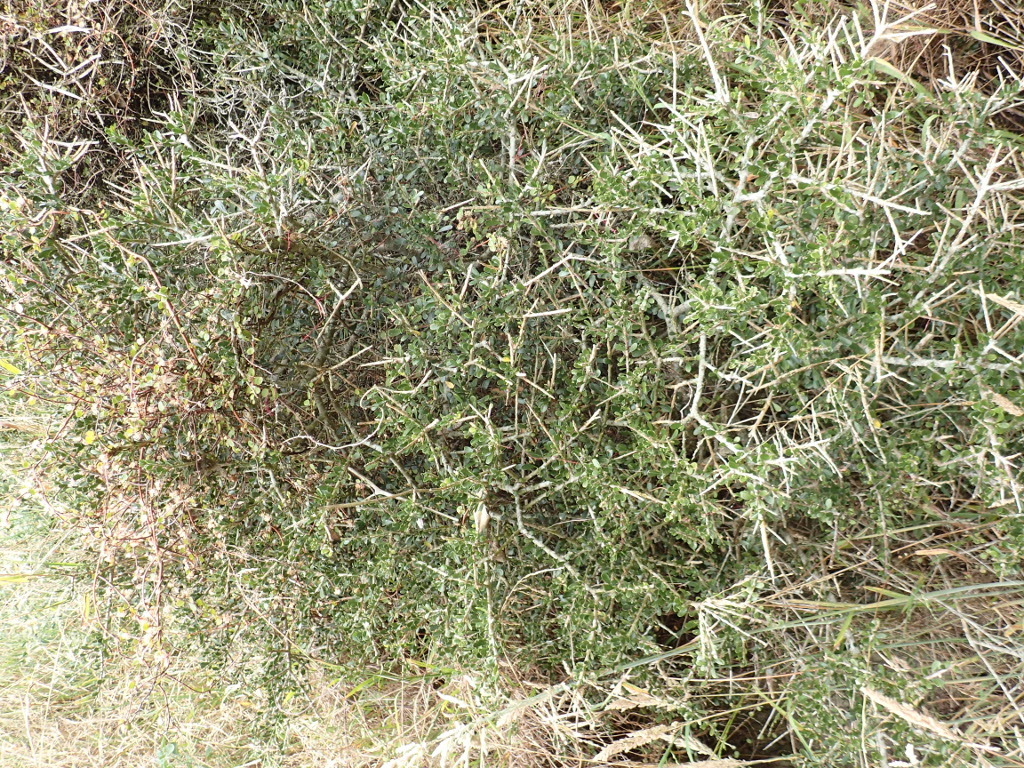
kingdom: Plantae
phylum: Tracheophyta
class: Magnoliopsida
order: Malpighiales
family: Violaceae
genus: Melicytus
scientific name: Melicytus crassifolius
